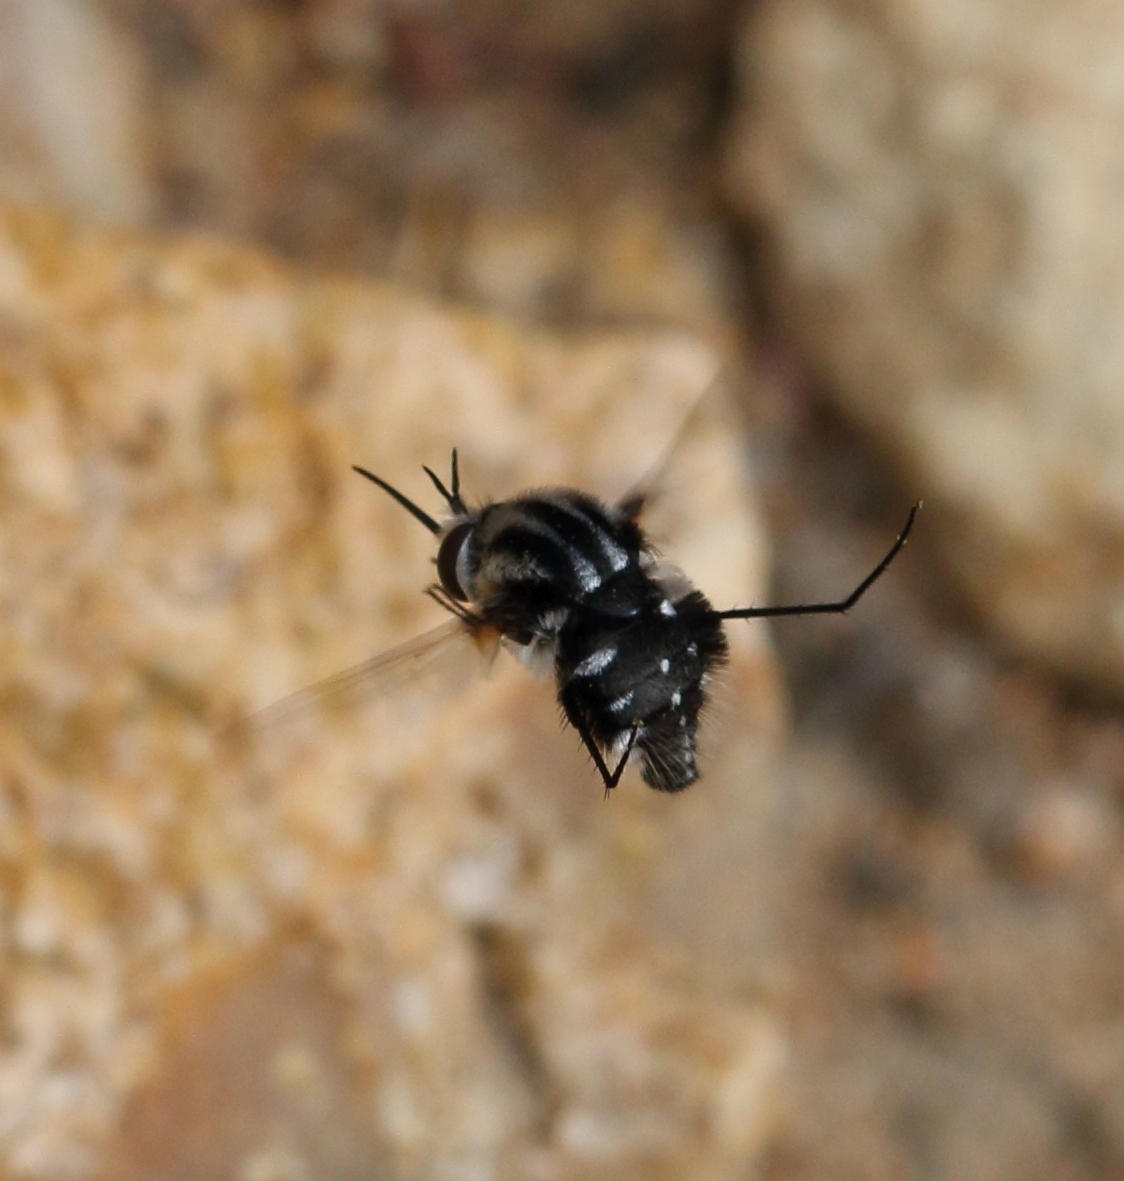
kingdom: Animalia
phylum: Arthropoda
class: Insecta
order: Diptera
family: Bombyliidae
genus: Bombomyia
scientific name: Bombomyia acroleuca
